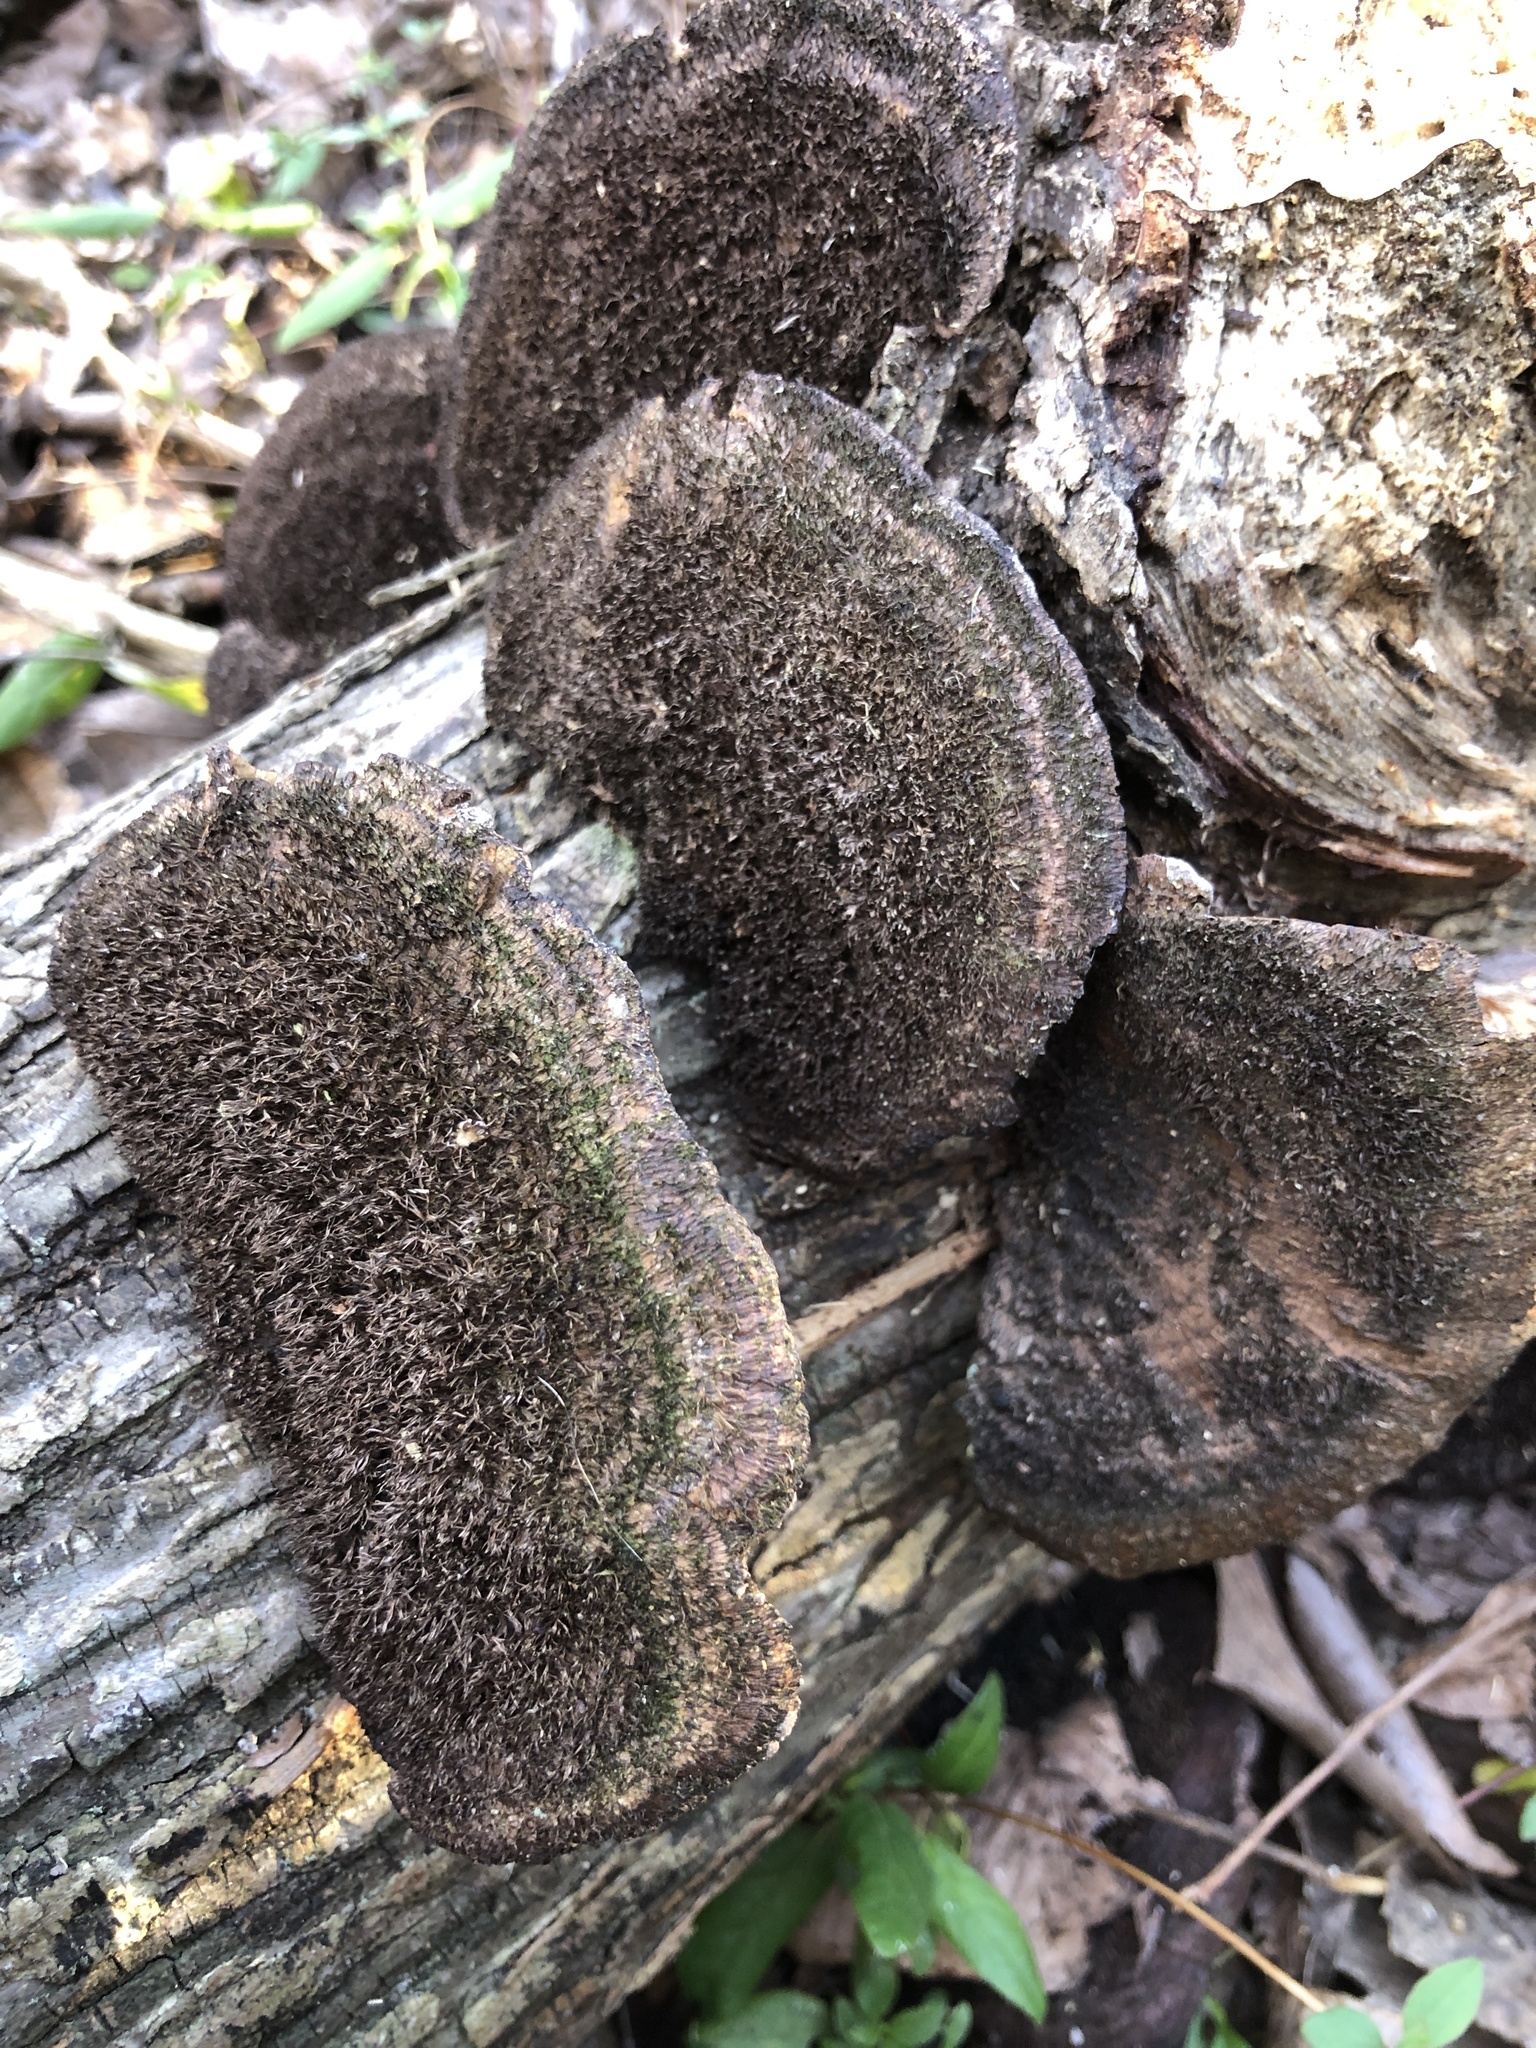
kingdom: Fungi
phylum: Basidiomycota
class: Agaricomycetes
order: Polyporales
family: Cerrenaceae
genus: Cerrena
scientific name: Cerrena hydnoides
